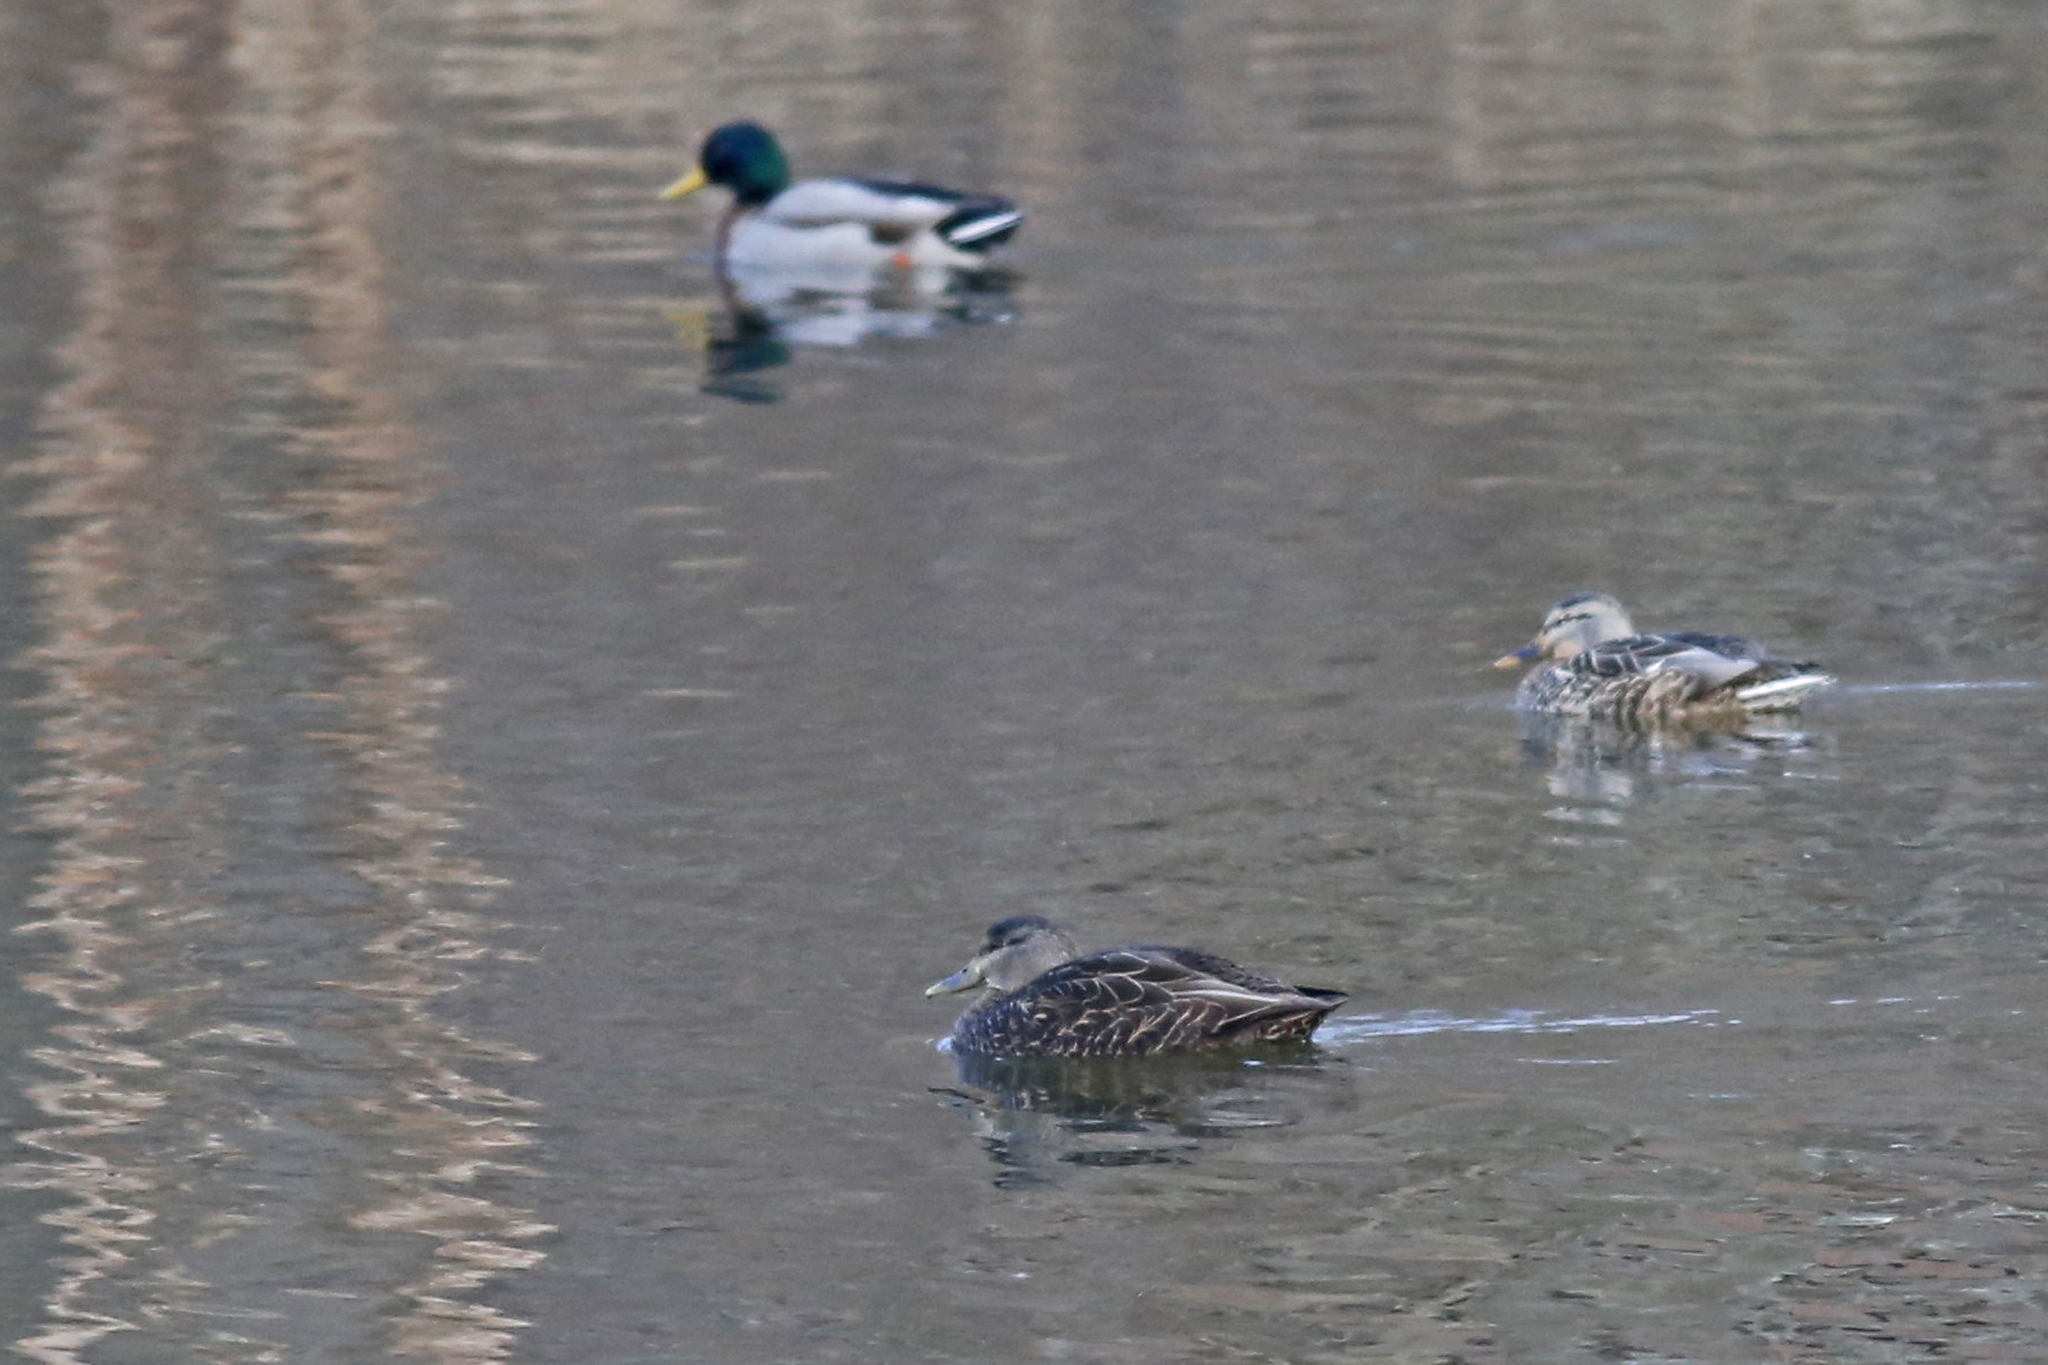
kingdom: Animalia
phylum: Chordata
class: Aves
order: Anseriformes
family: Anatidae
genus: Anas
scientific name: Anas rubripes
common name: American black duck
